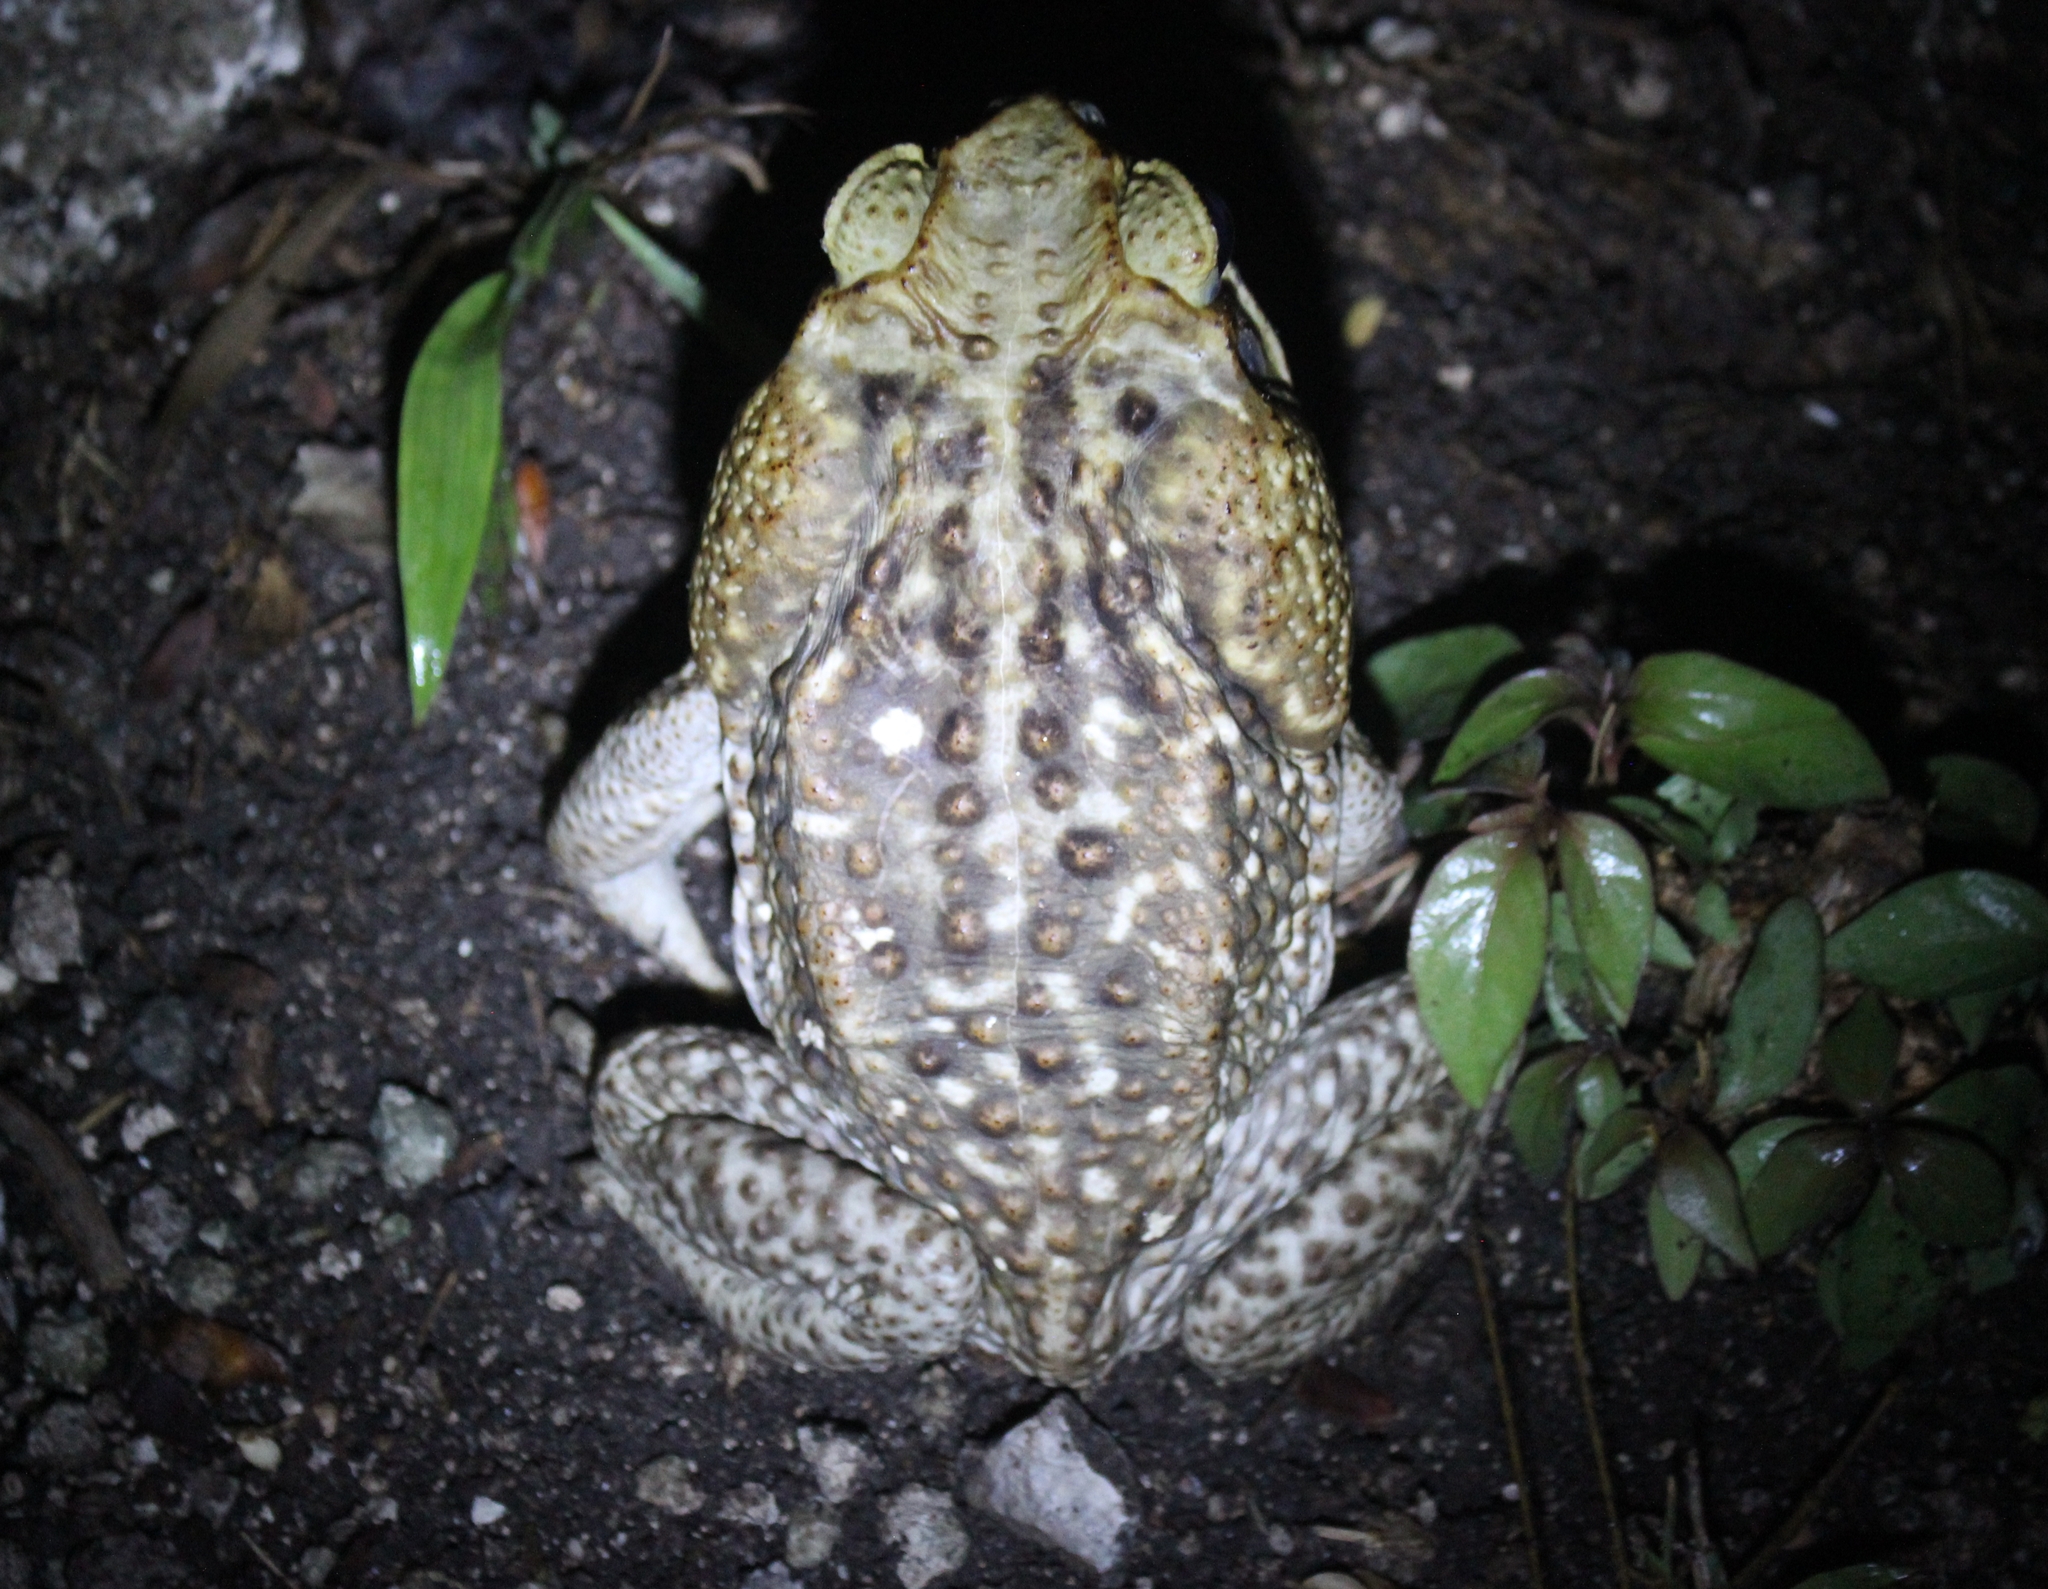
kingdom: Animalia
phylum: Chordata
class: Amphibia
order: Anura
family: Bufonidae
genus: Rhinella
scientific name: Rhinella horribilis
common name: Mesoamerican cane toad
